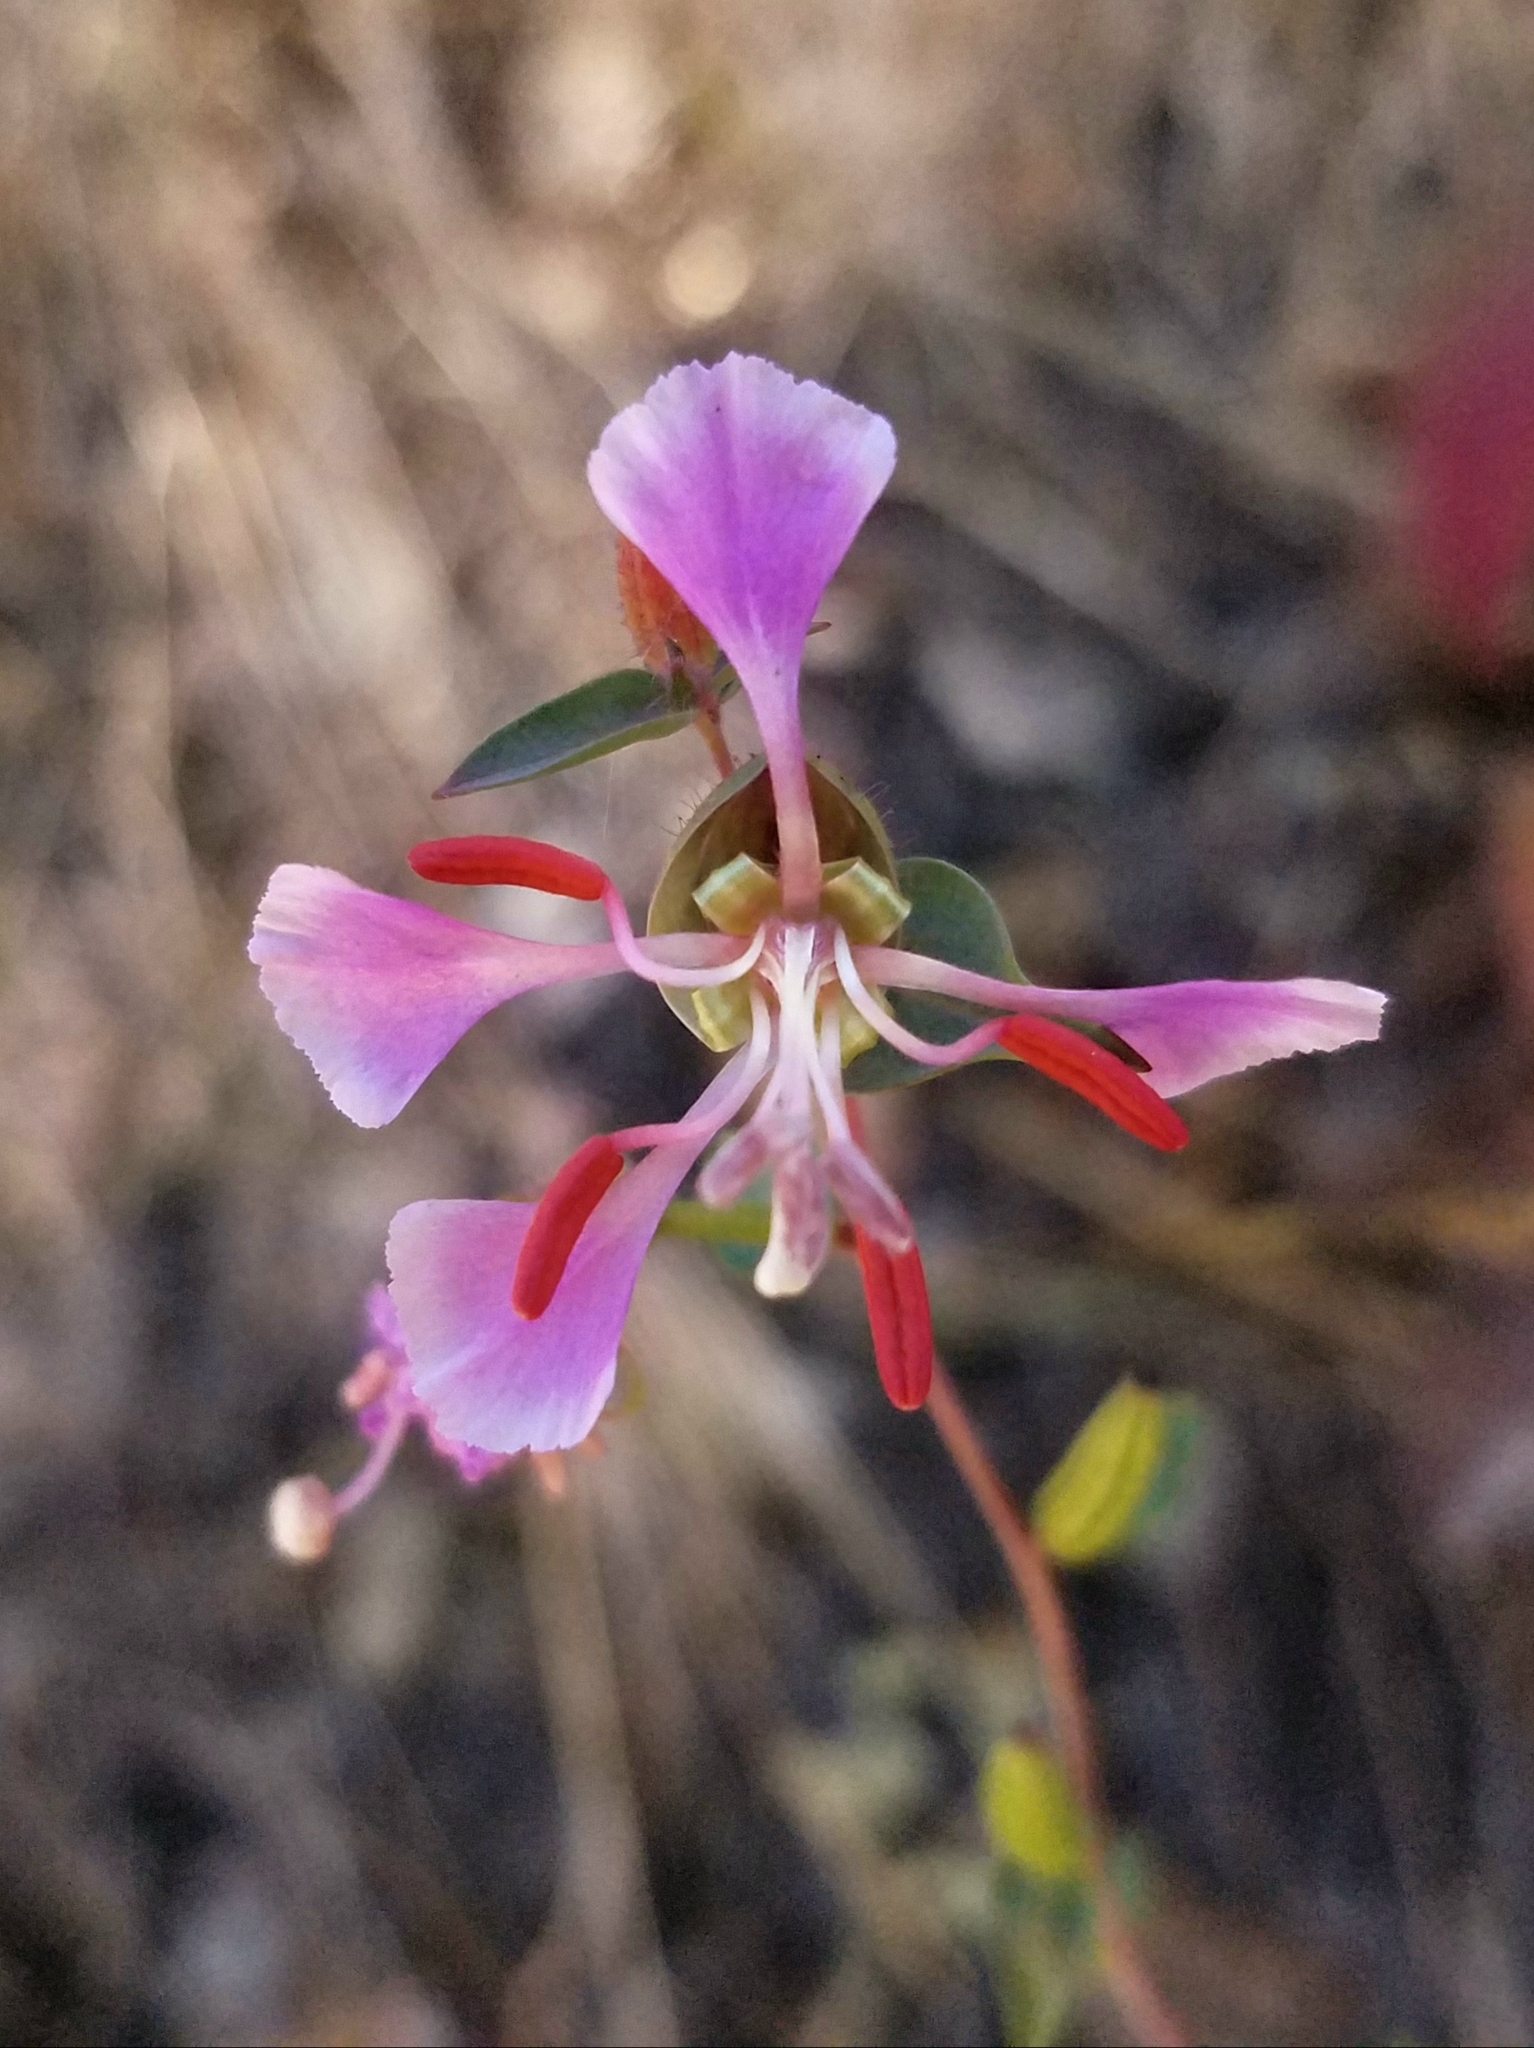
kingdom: Plantae
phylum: Tracheophyta
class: Magnoliopsida
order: Myrtales
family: Onagraceae
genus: Clarkia
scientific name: Clarkia unguiculata
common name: Clarkia
